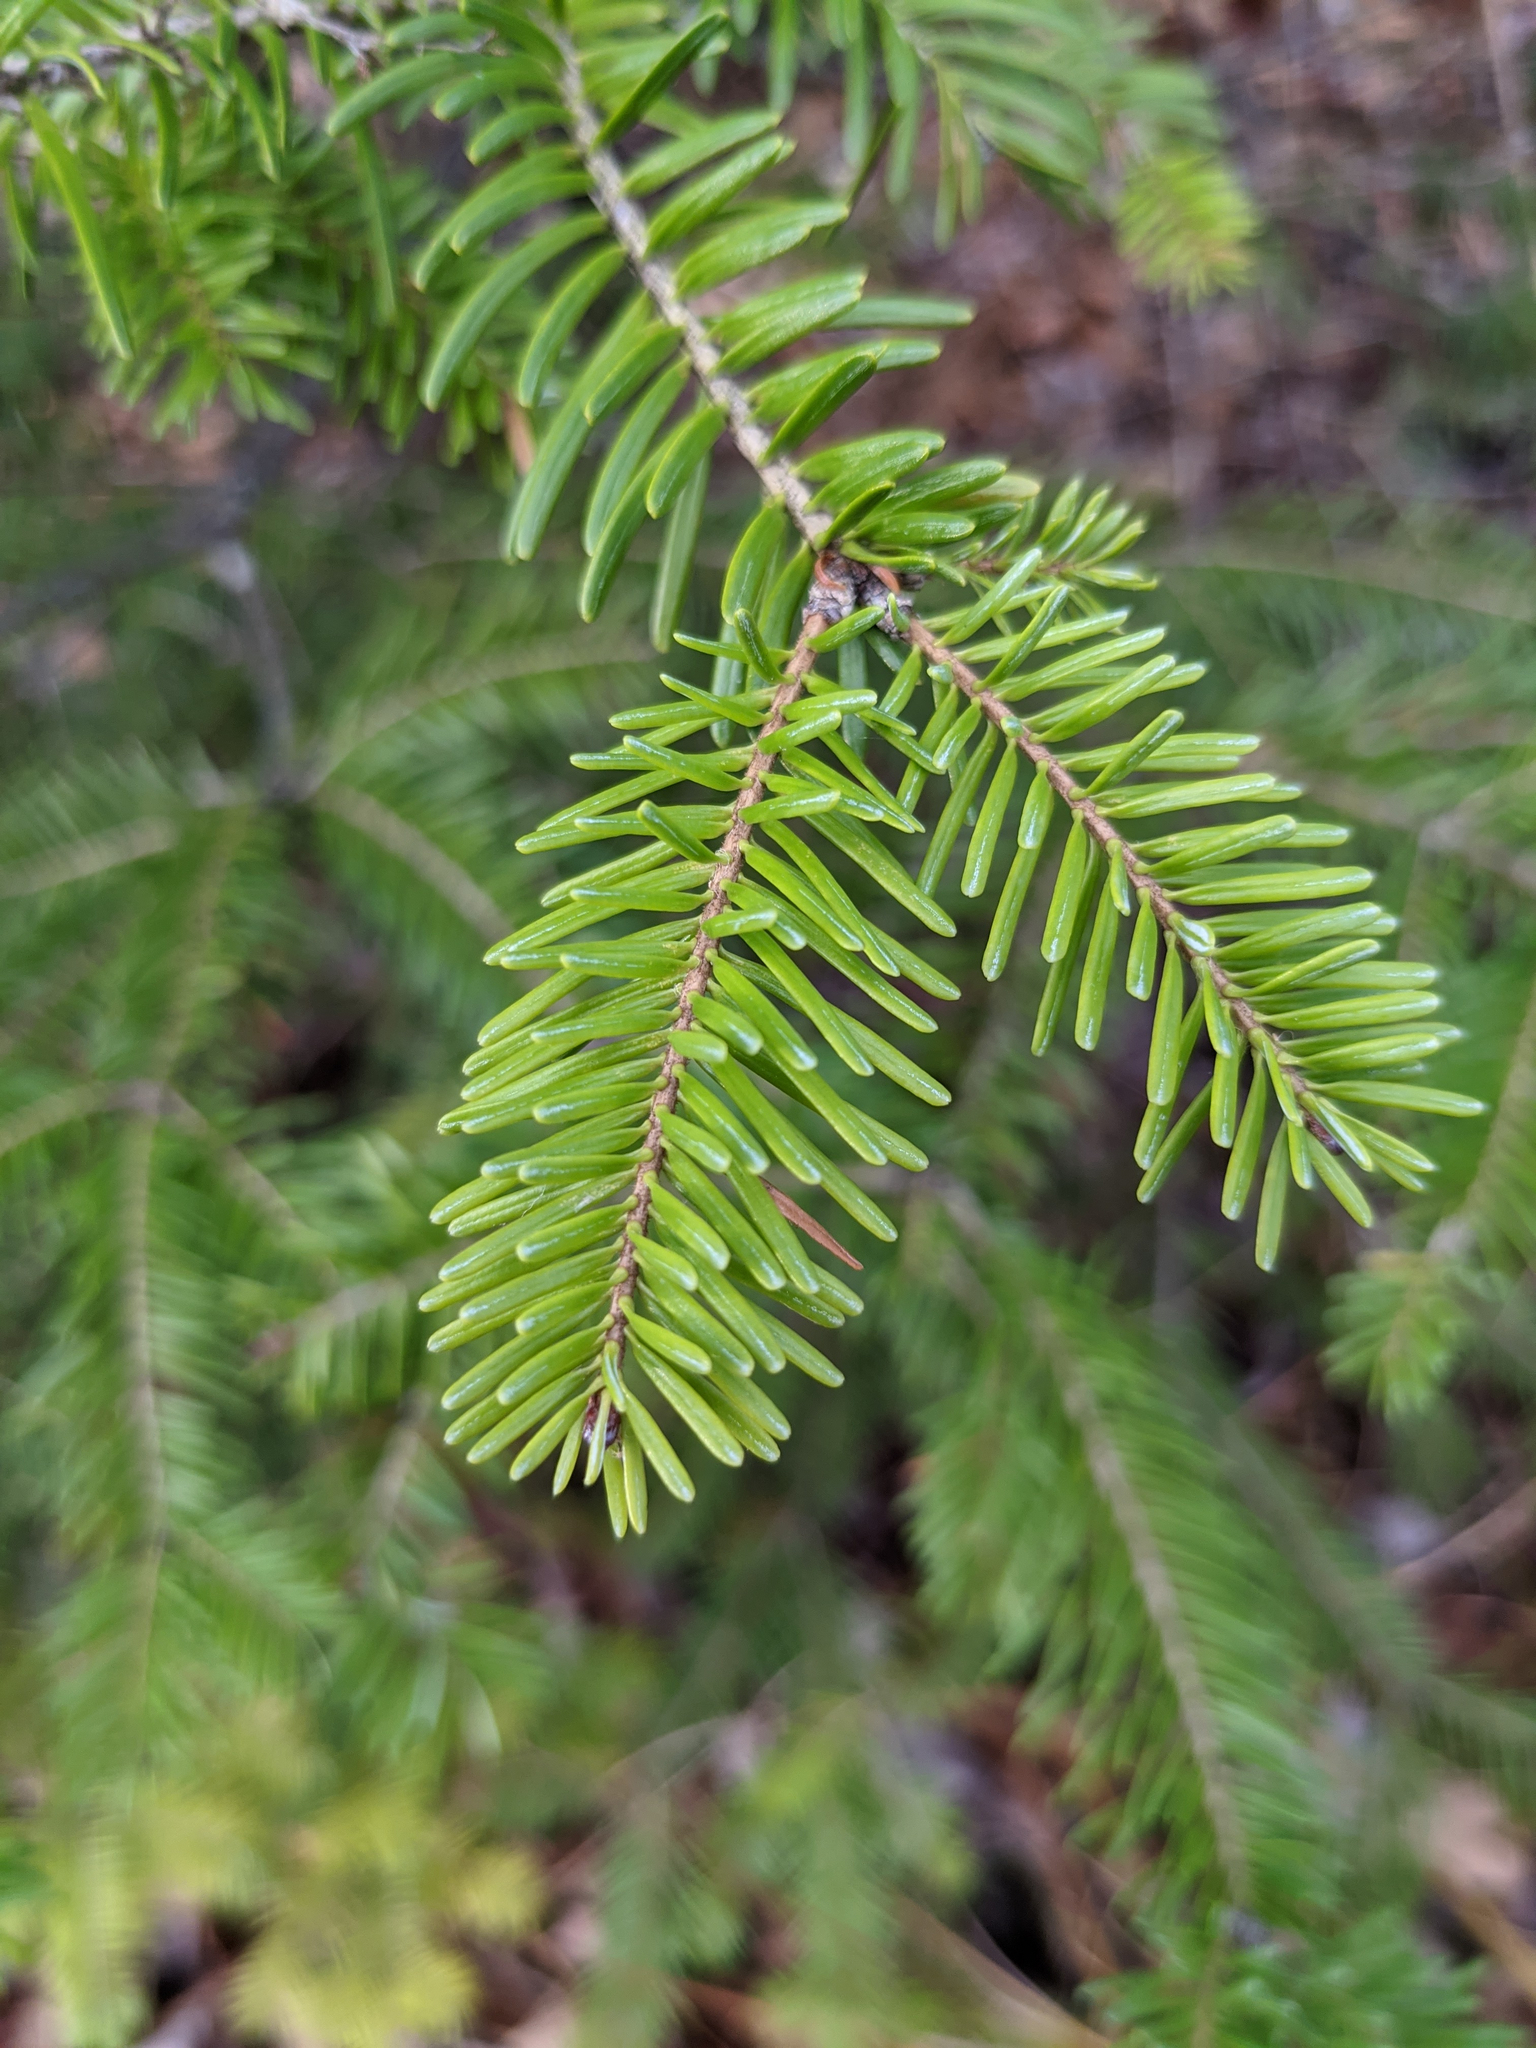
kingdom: Plantae
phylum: Tracheophyta
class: Pinopsida
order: Pinales
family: Pinaceae
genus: Abies
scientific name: Abies balsamea
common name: Balsam fir
